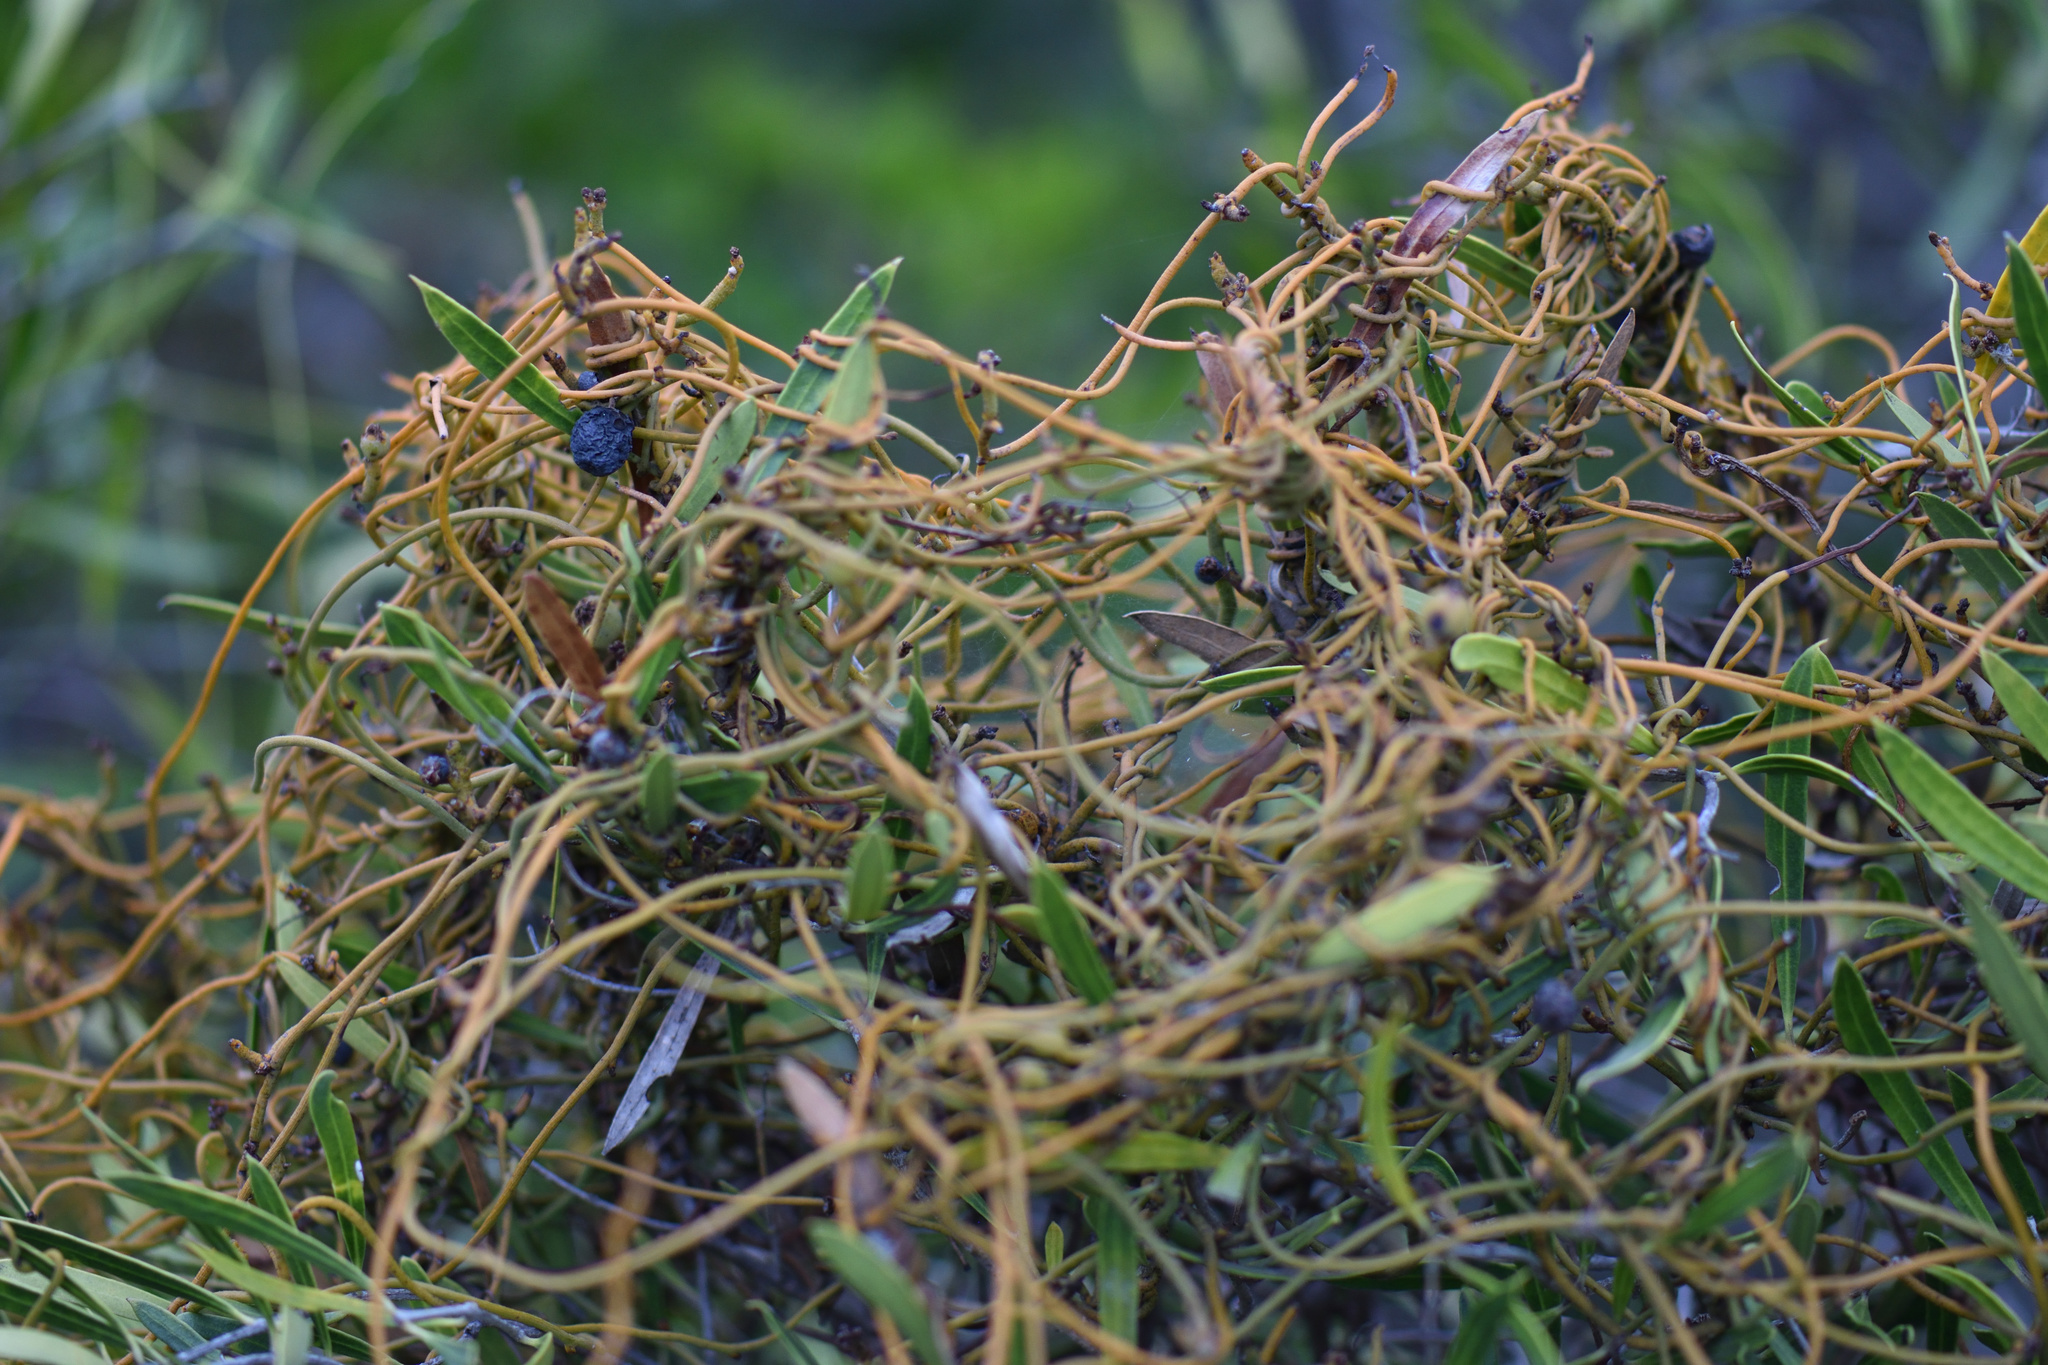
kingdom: Plantae
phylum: Tracheophyta
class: Magnoliopsida
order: Laurales
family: Lauraceae
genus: Cassytha
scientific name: Cassytha ciliolata
